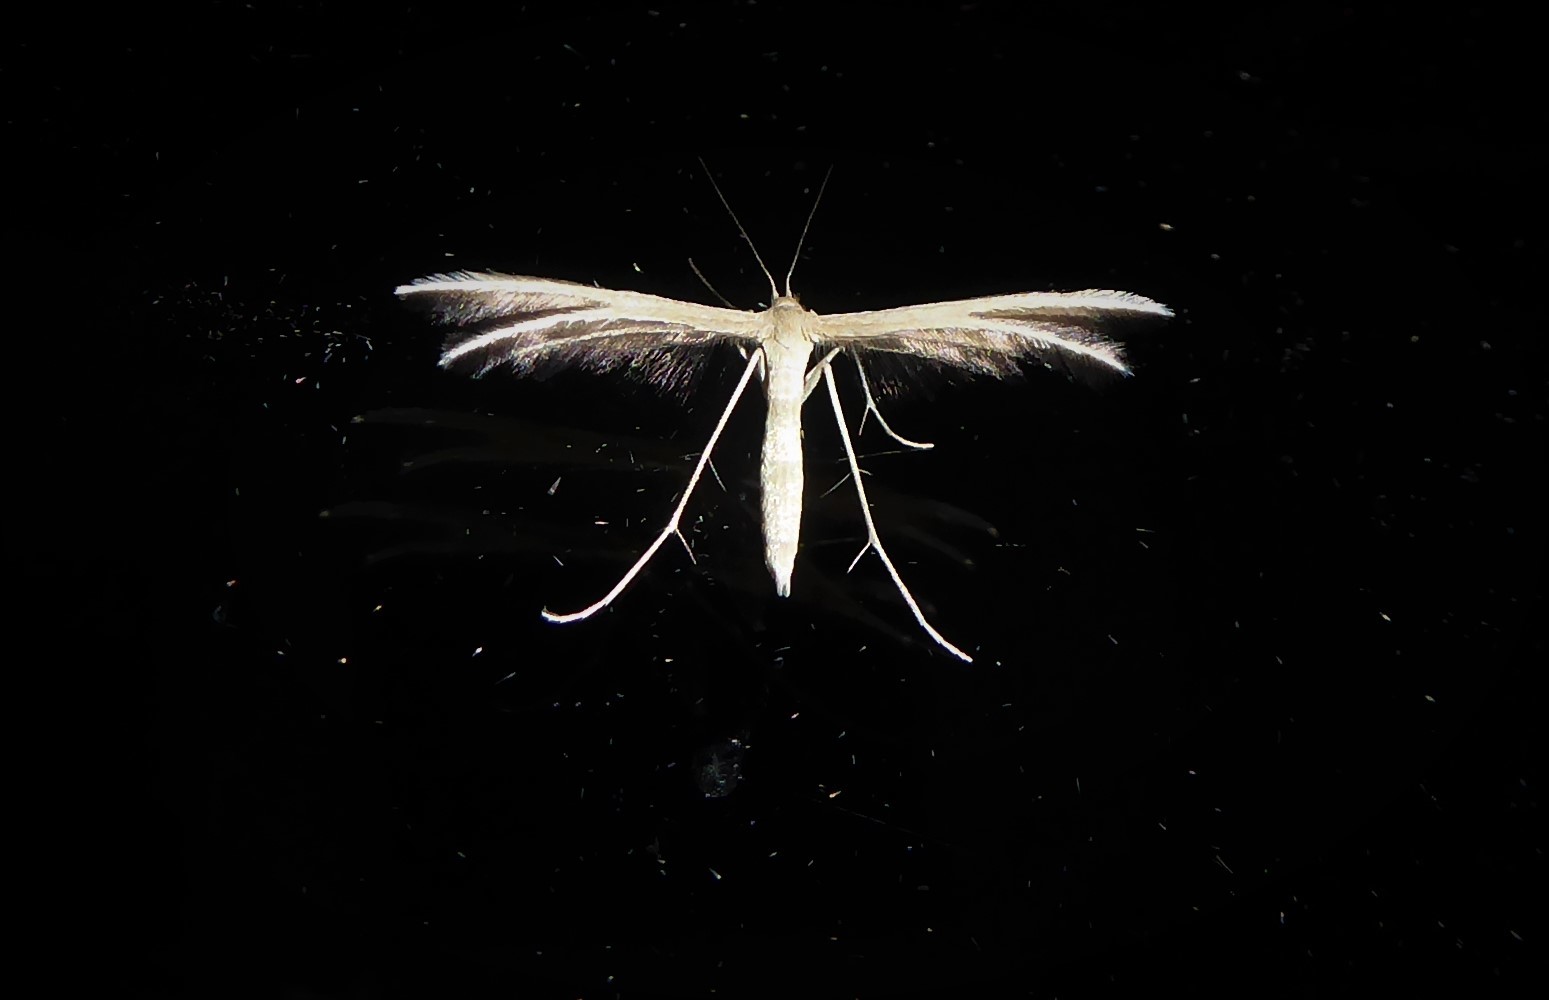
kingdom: Animalia
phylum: Arthropoda
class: Insecta
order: Lepidoptera
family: Pterophoridae
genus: Pterophorus
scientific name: Pterophorus innotatalis
